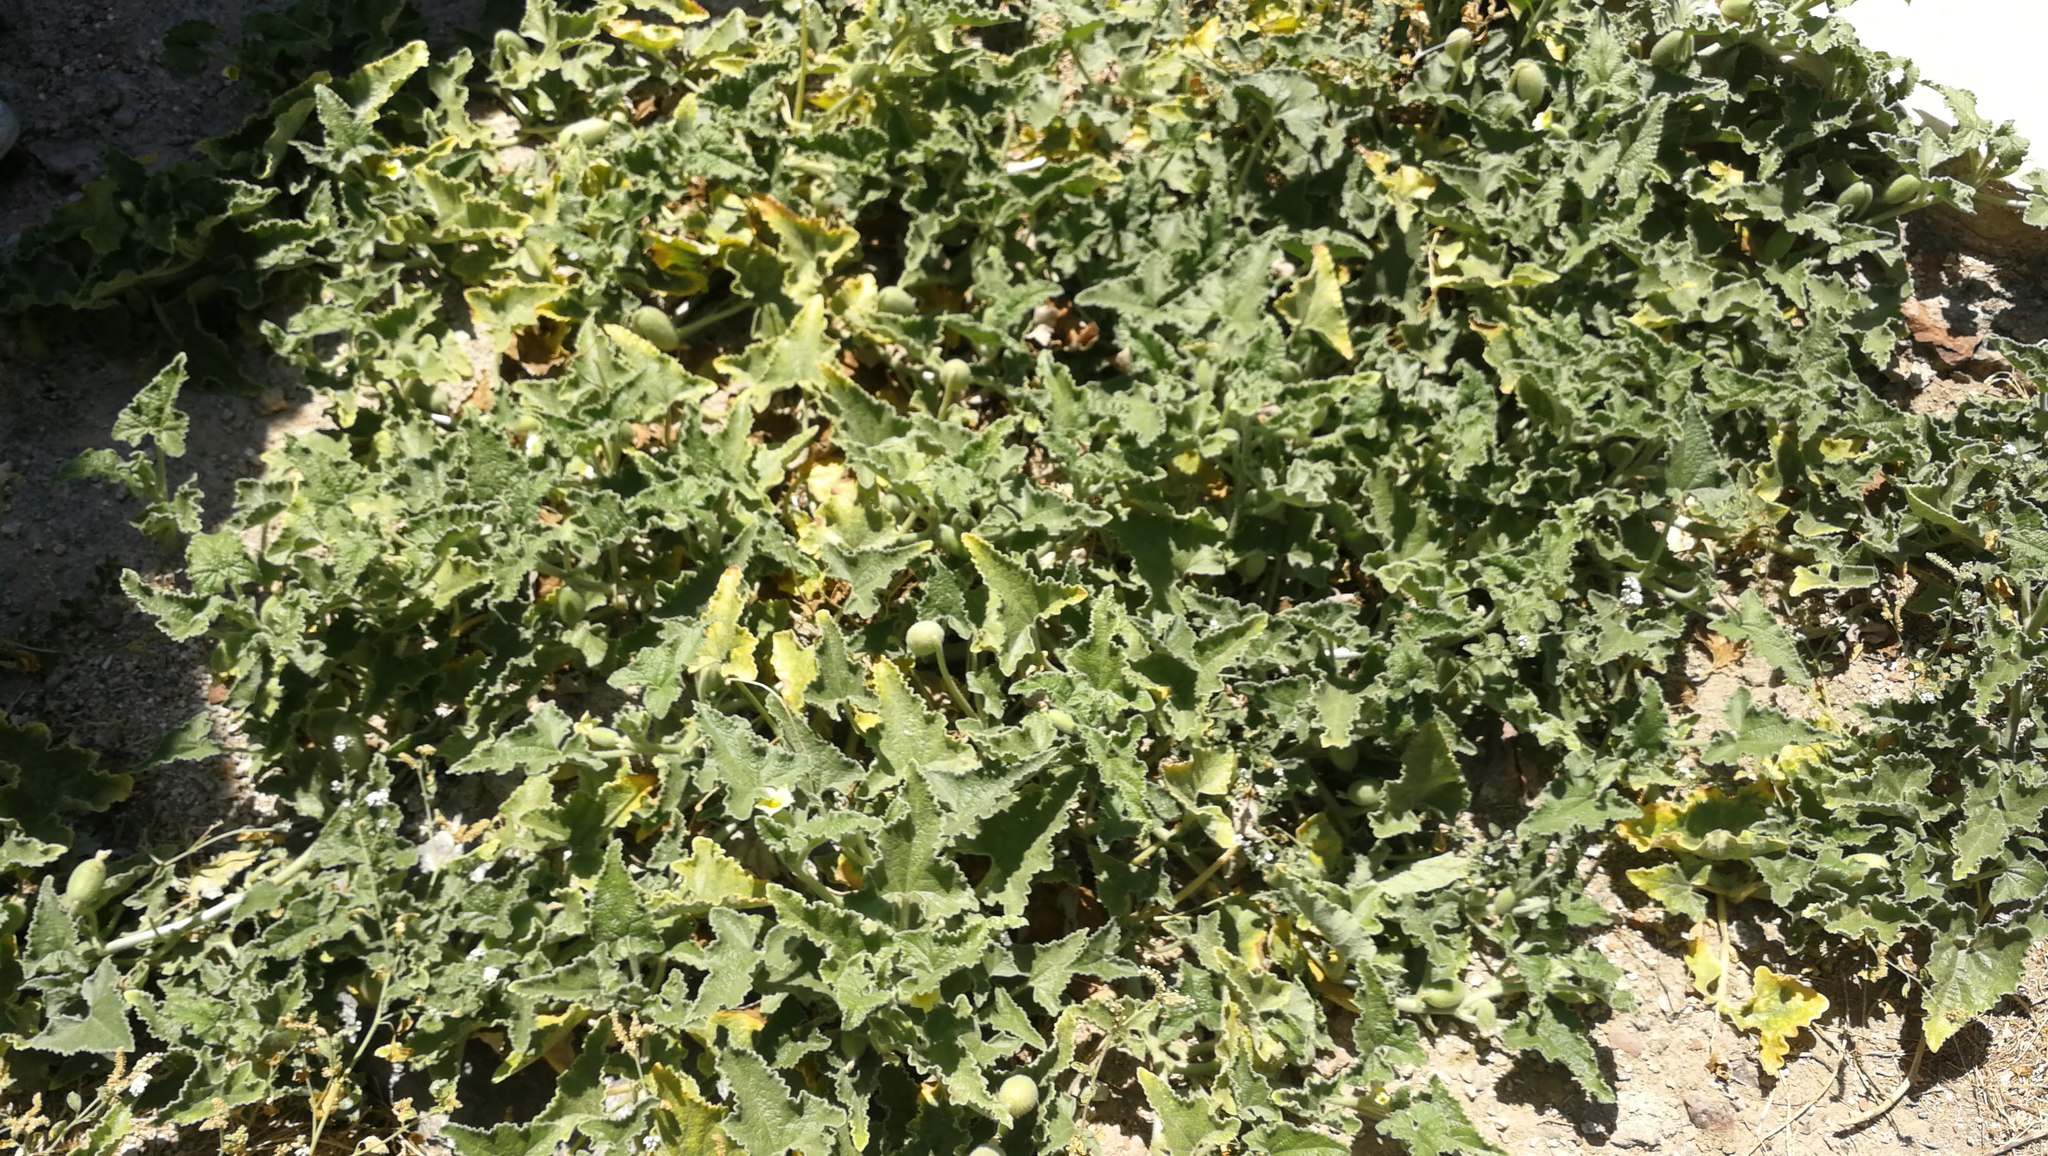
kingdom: Plantae
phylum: Tracheophyta
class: Magnoliopsida
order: Cucurbitales
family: Cucurbitaceae
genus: Ecballium
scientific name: Ecballium elaterium
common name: Squirting cucumber
